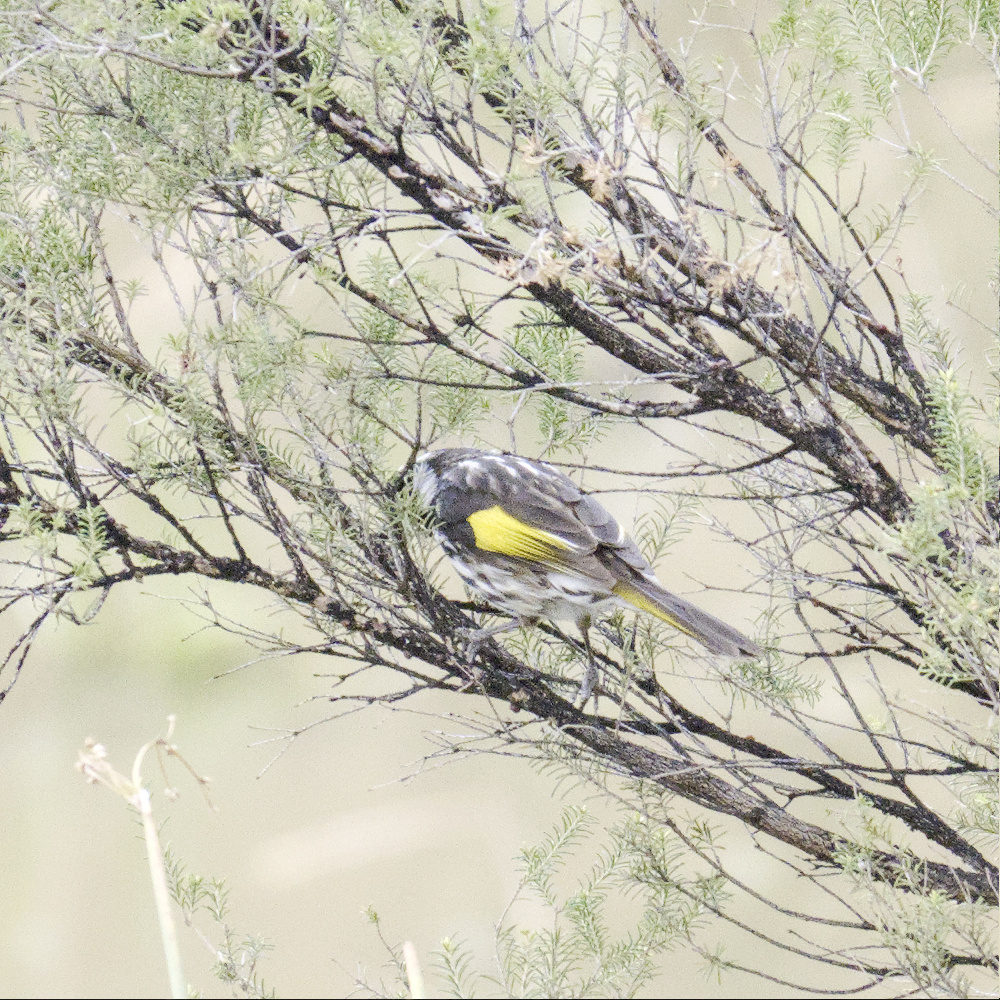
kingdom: Animalia
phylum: Chordata
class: Aves
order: Passeriformes
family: Meliphagidae
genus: Phylidonyris
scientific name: Phylidonyris novaehollandiae
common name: New holland honeyeater
